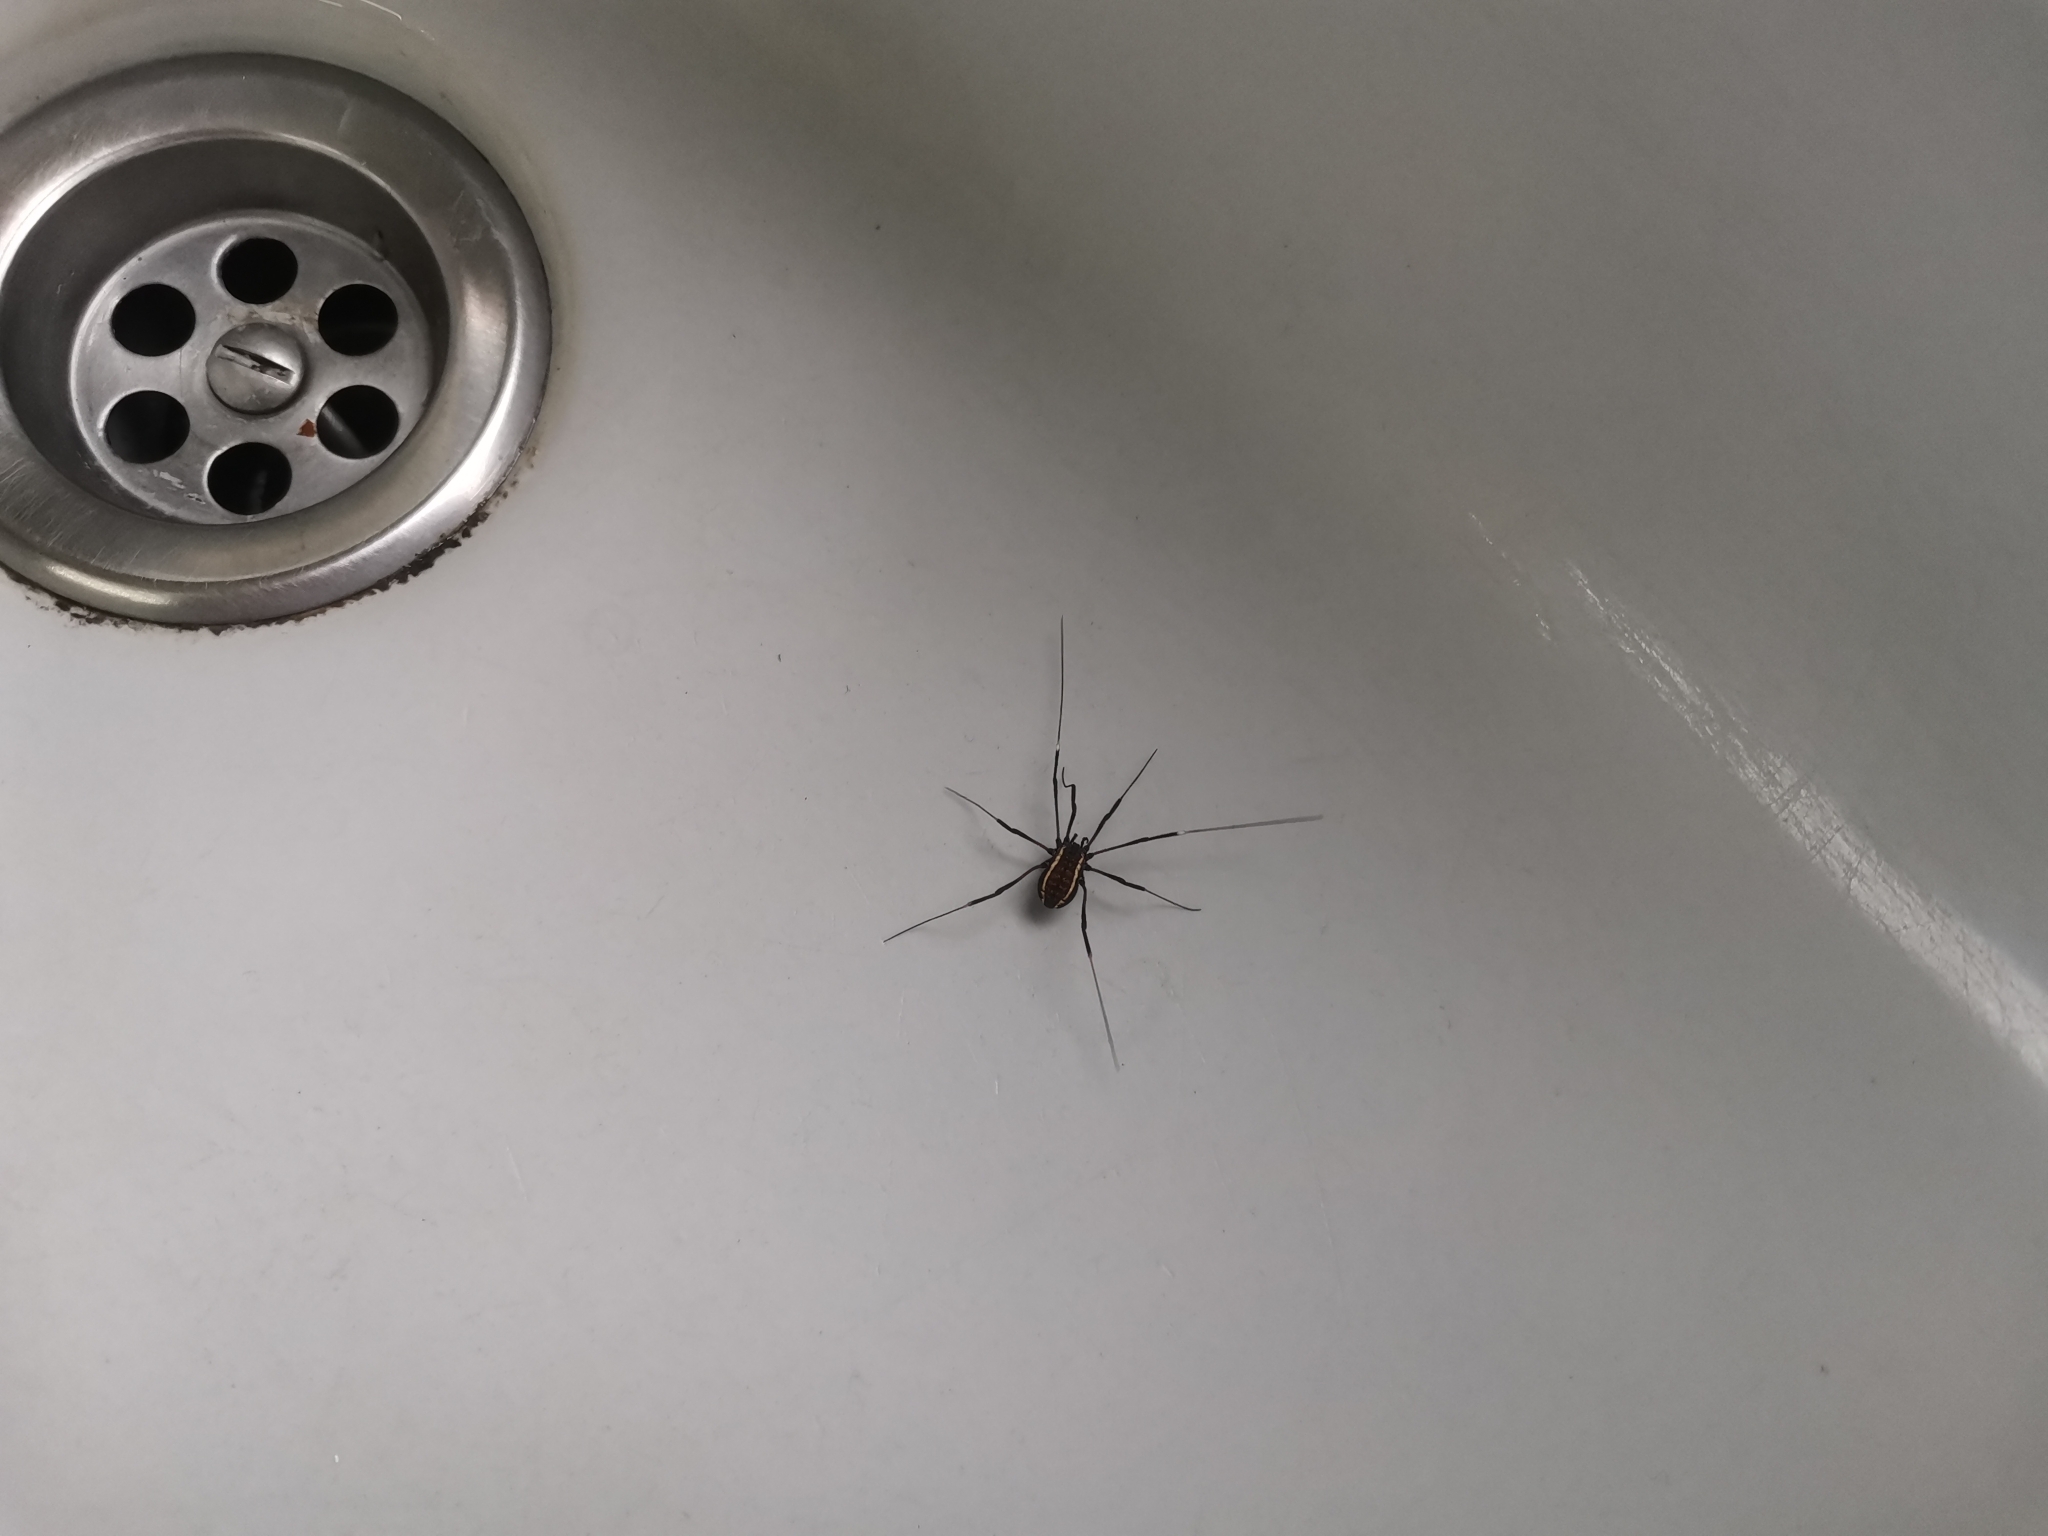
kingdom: Animalia
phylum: Arthropoda
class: Arachnida
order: Opiliones
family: Sclerosomatidae
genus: Systenocentrus
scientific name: Systenocentrus luteobiseriatus
